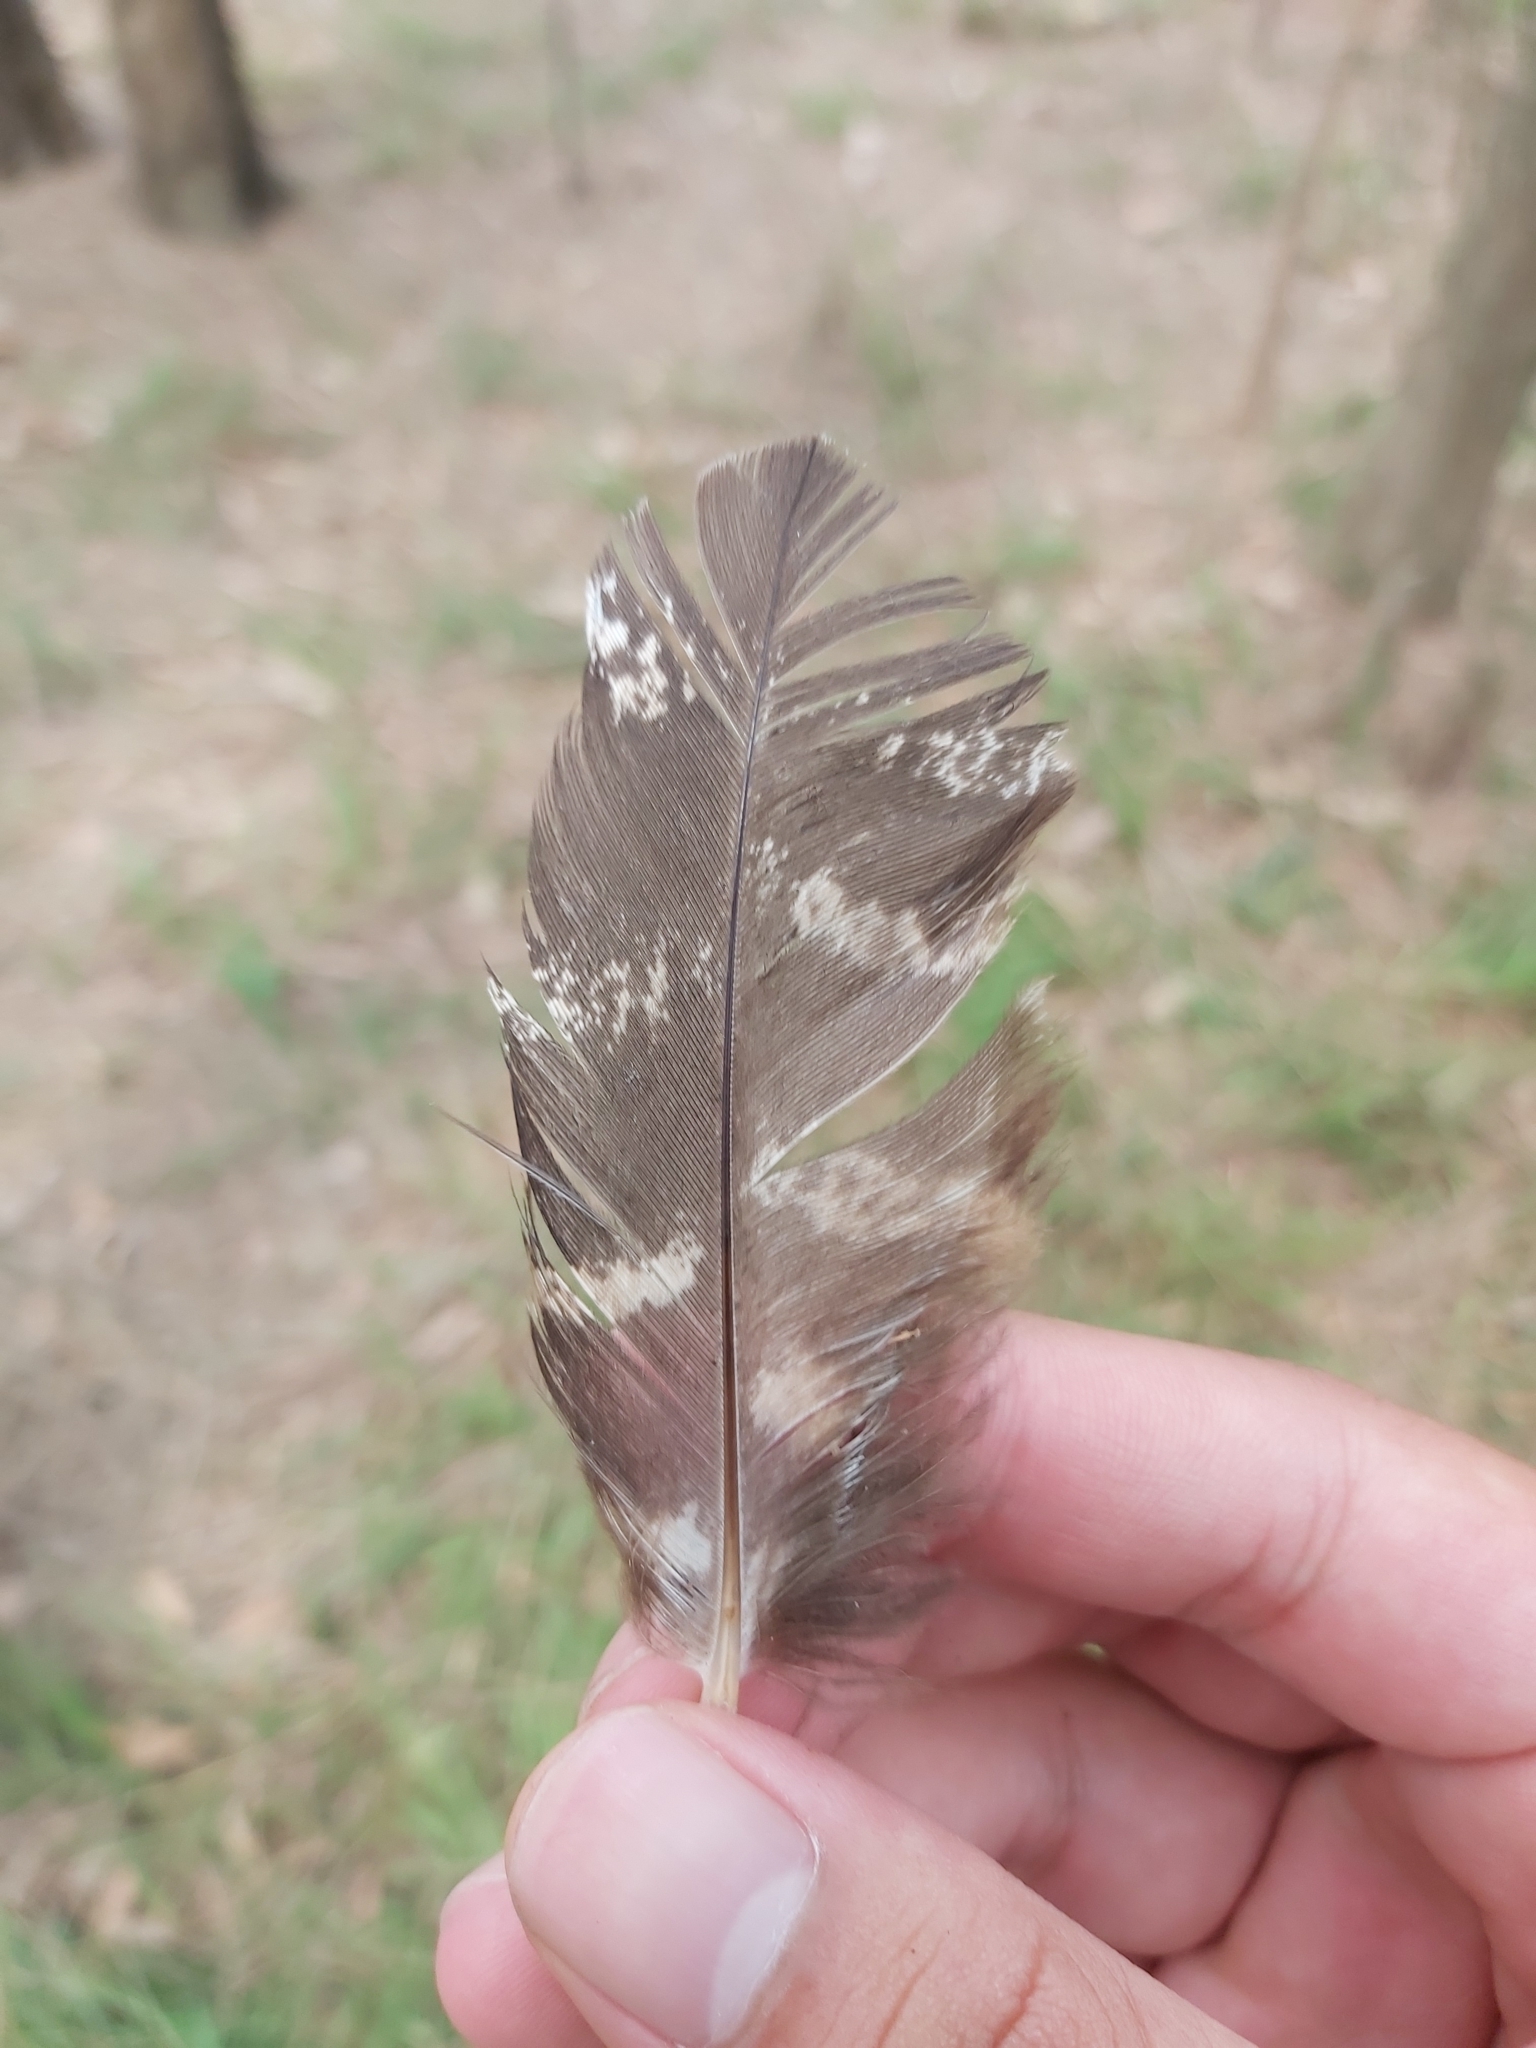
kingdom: Animalia
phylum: Chordata
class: Aves
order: Caprimulgiformes
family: Podargidae
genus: Podargus
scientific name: Podargus strigoides
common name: Tawny frogmouth
